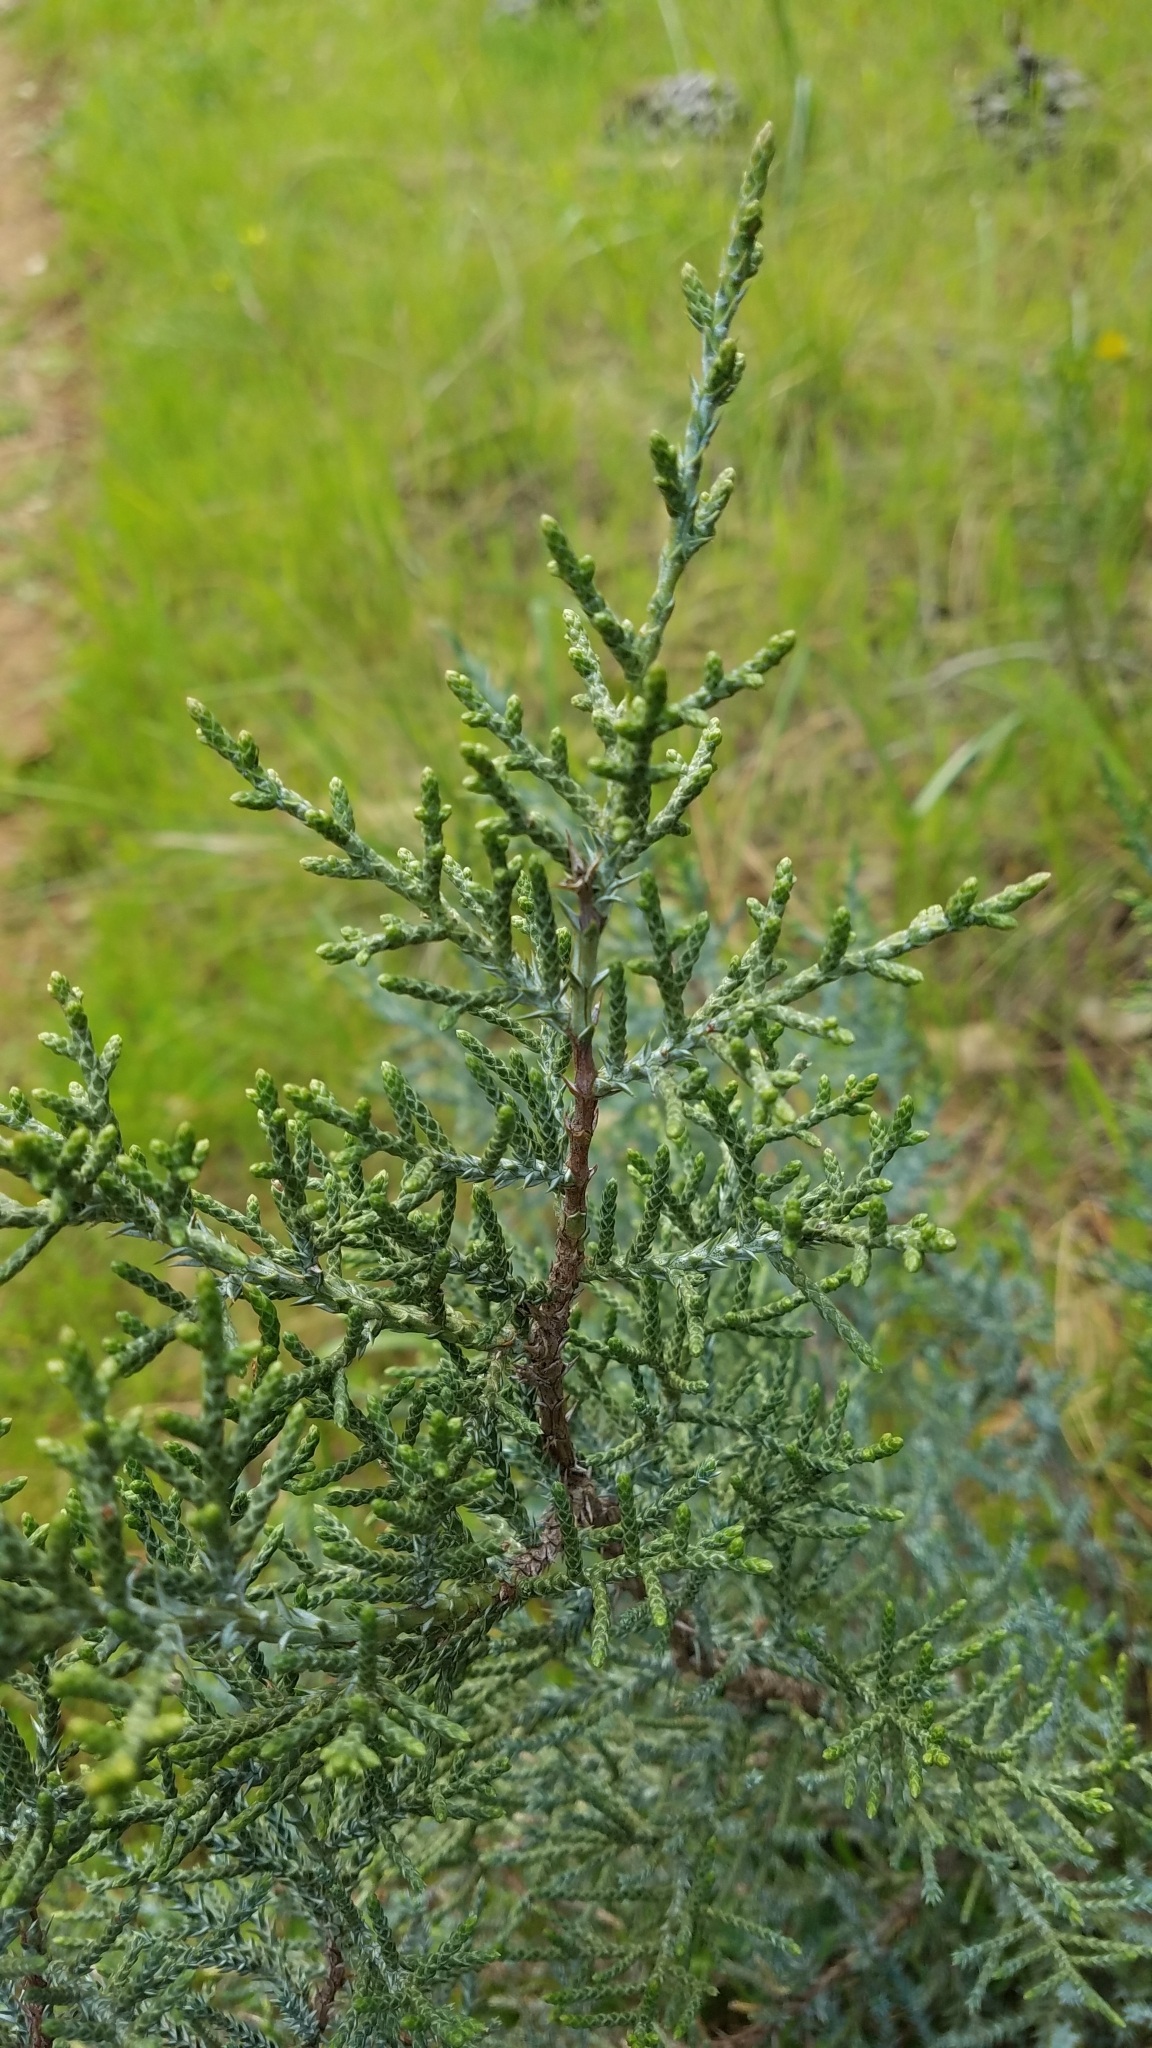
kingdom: Plantae
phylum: Tracheophyta
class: Pinopsida
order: Pinales
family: Cupressaceae
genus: Juniperus
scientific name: Juniperus californica
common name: California juniper
